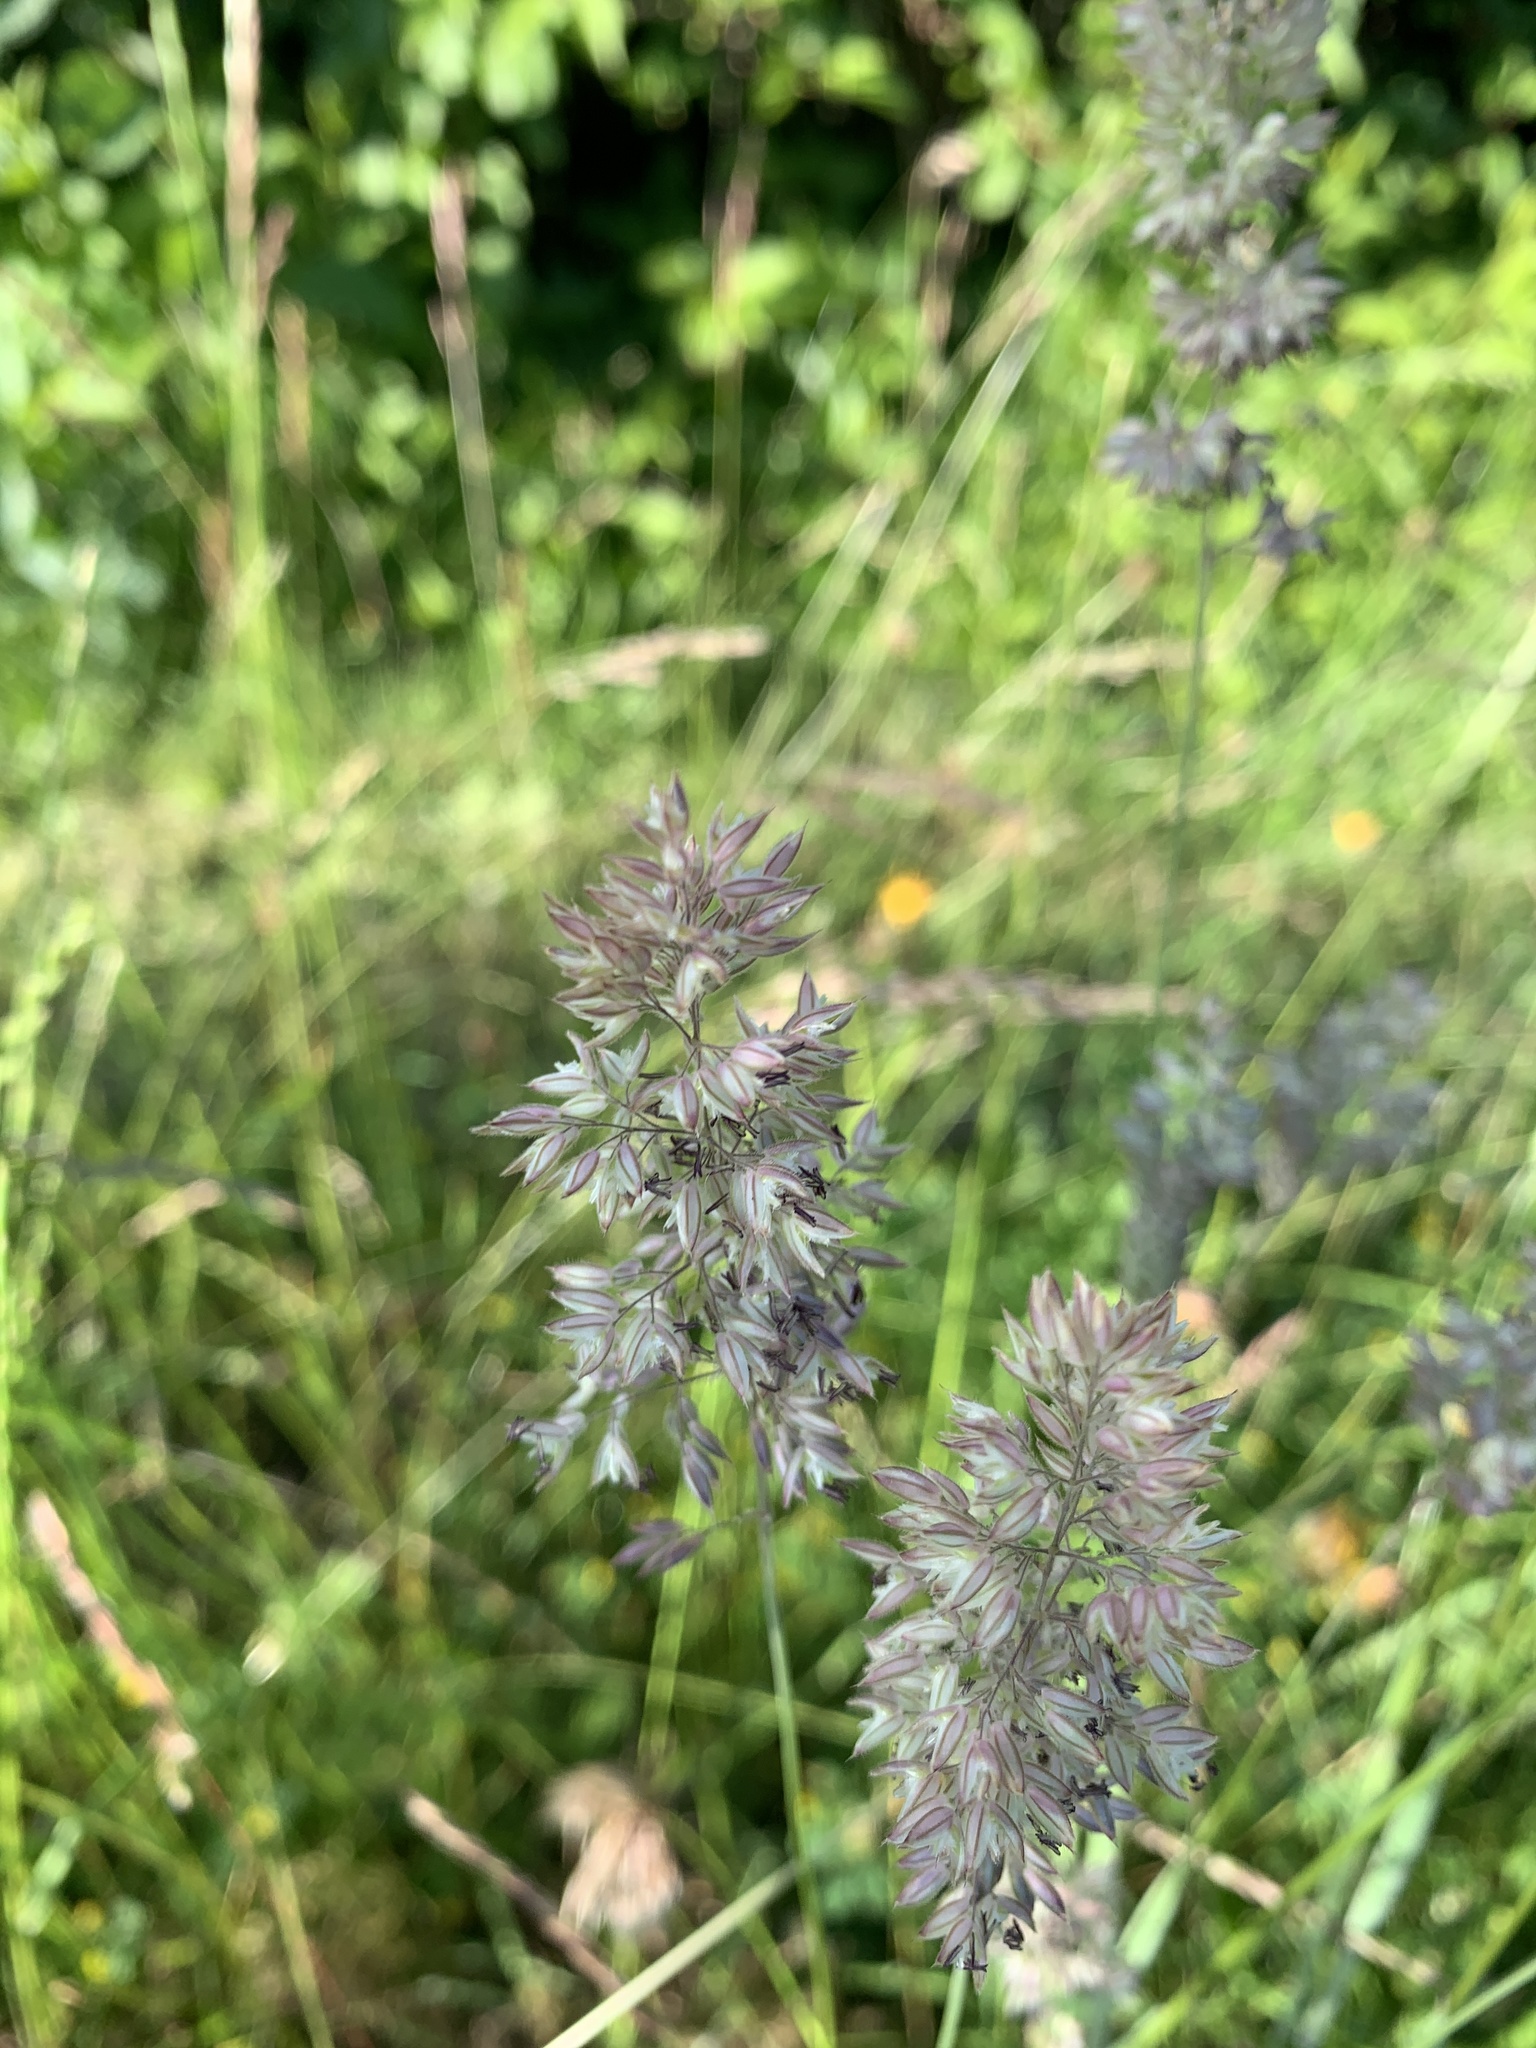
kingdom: Plantae
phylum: Tracheophyta
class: Liliopsida
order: Poales
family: Poaceae
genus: Holcus
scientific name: Holcus lanatus
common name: Yorkshire-fog
